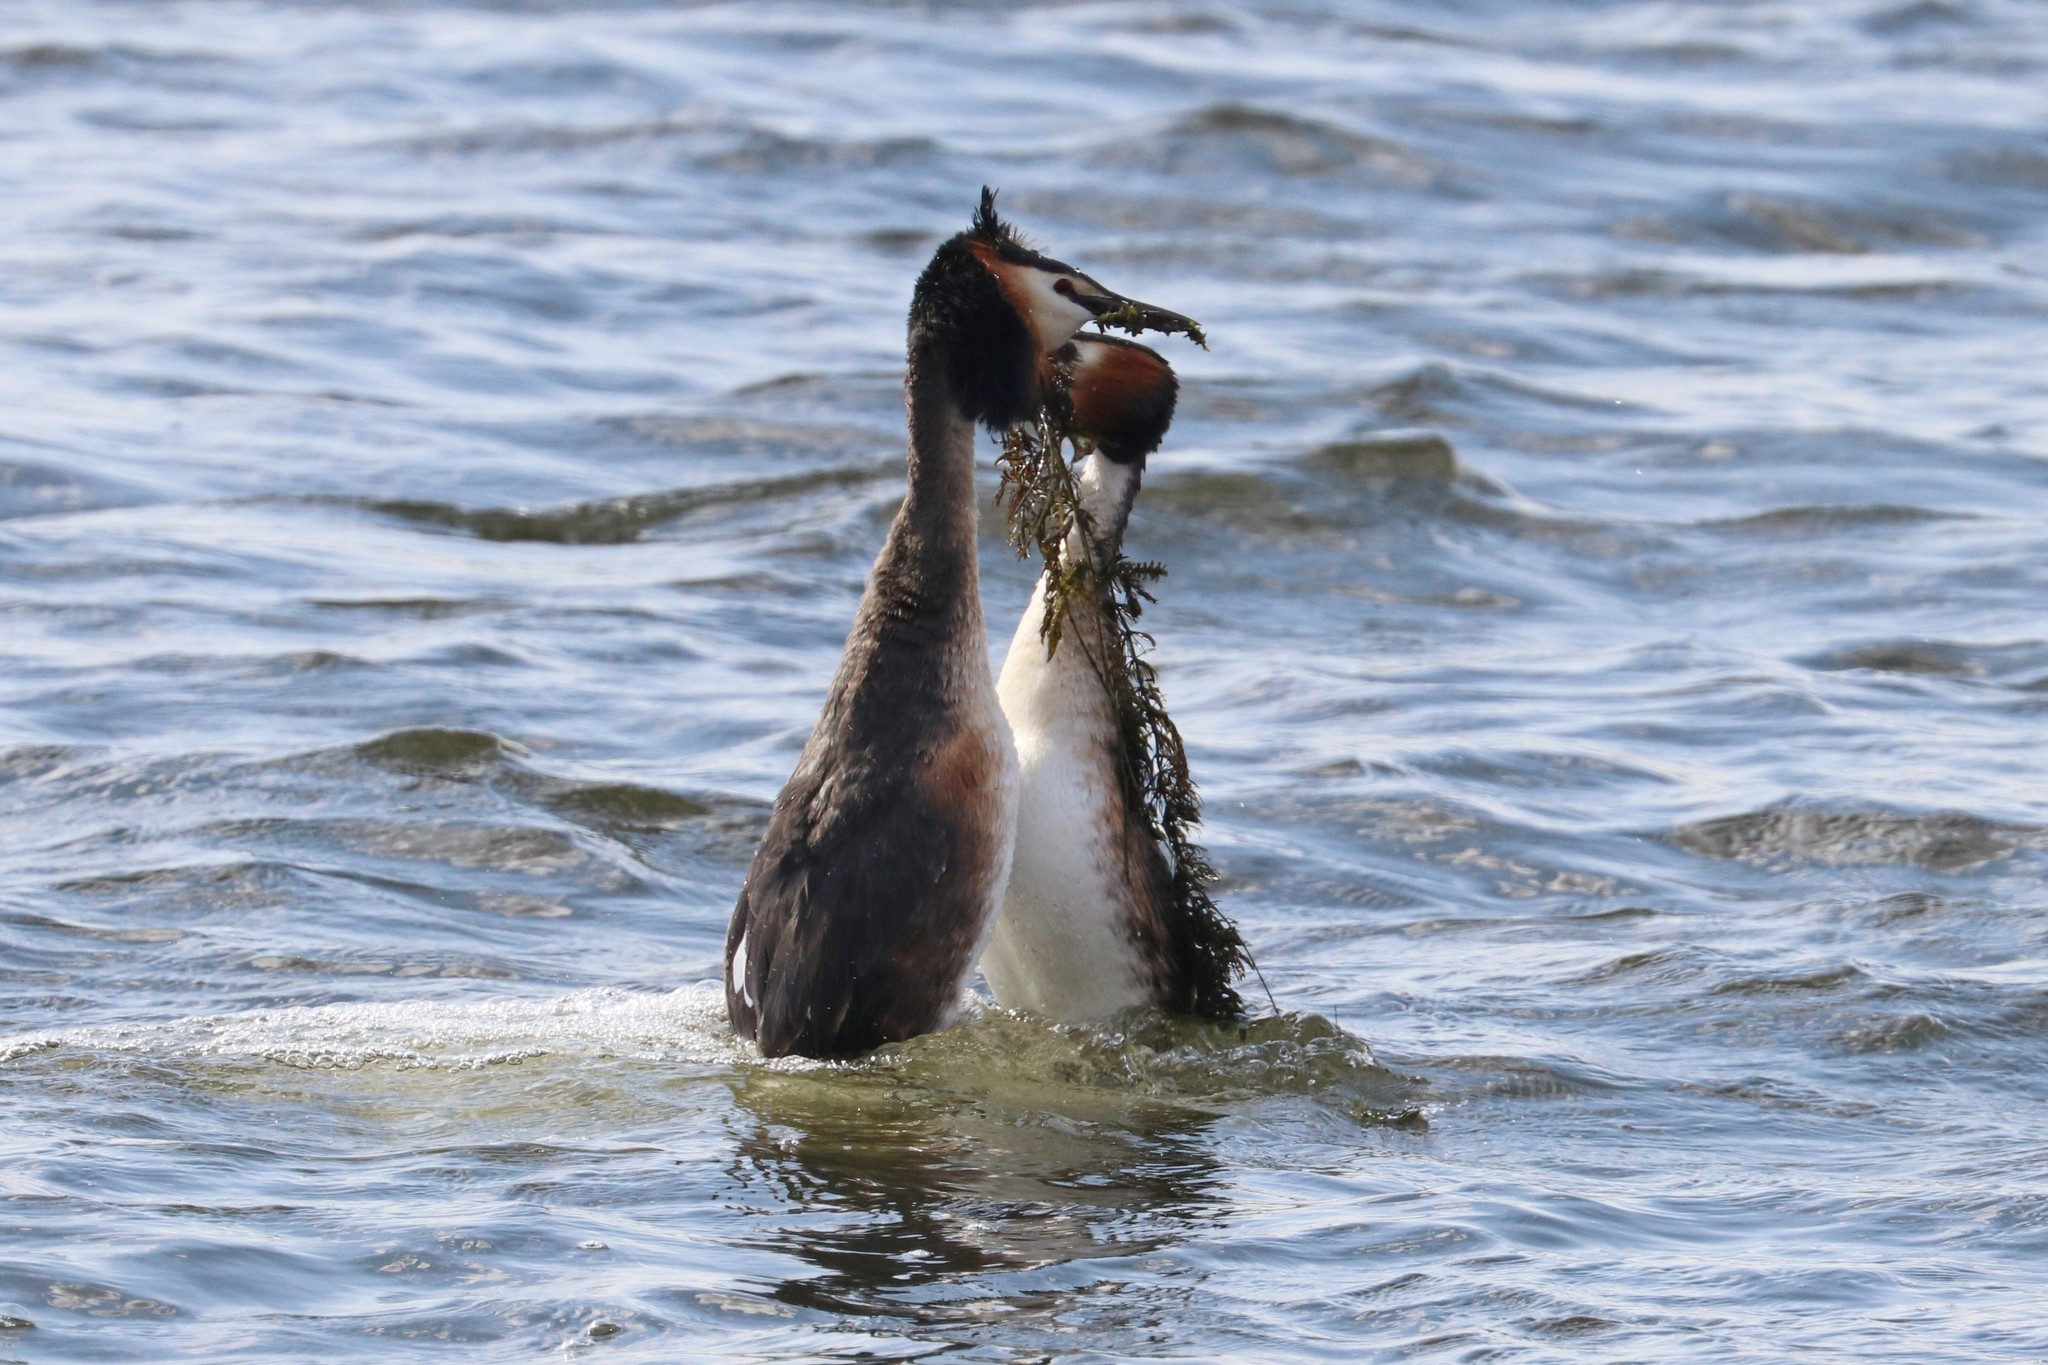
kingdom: Animalia
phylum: Chordata
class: Aves
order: Podicipediformes
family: Podicipedidae
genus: Podiceps
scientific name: Podiceps cristatus
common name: Great crested grebe
